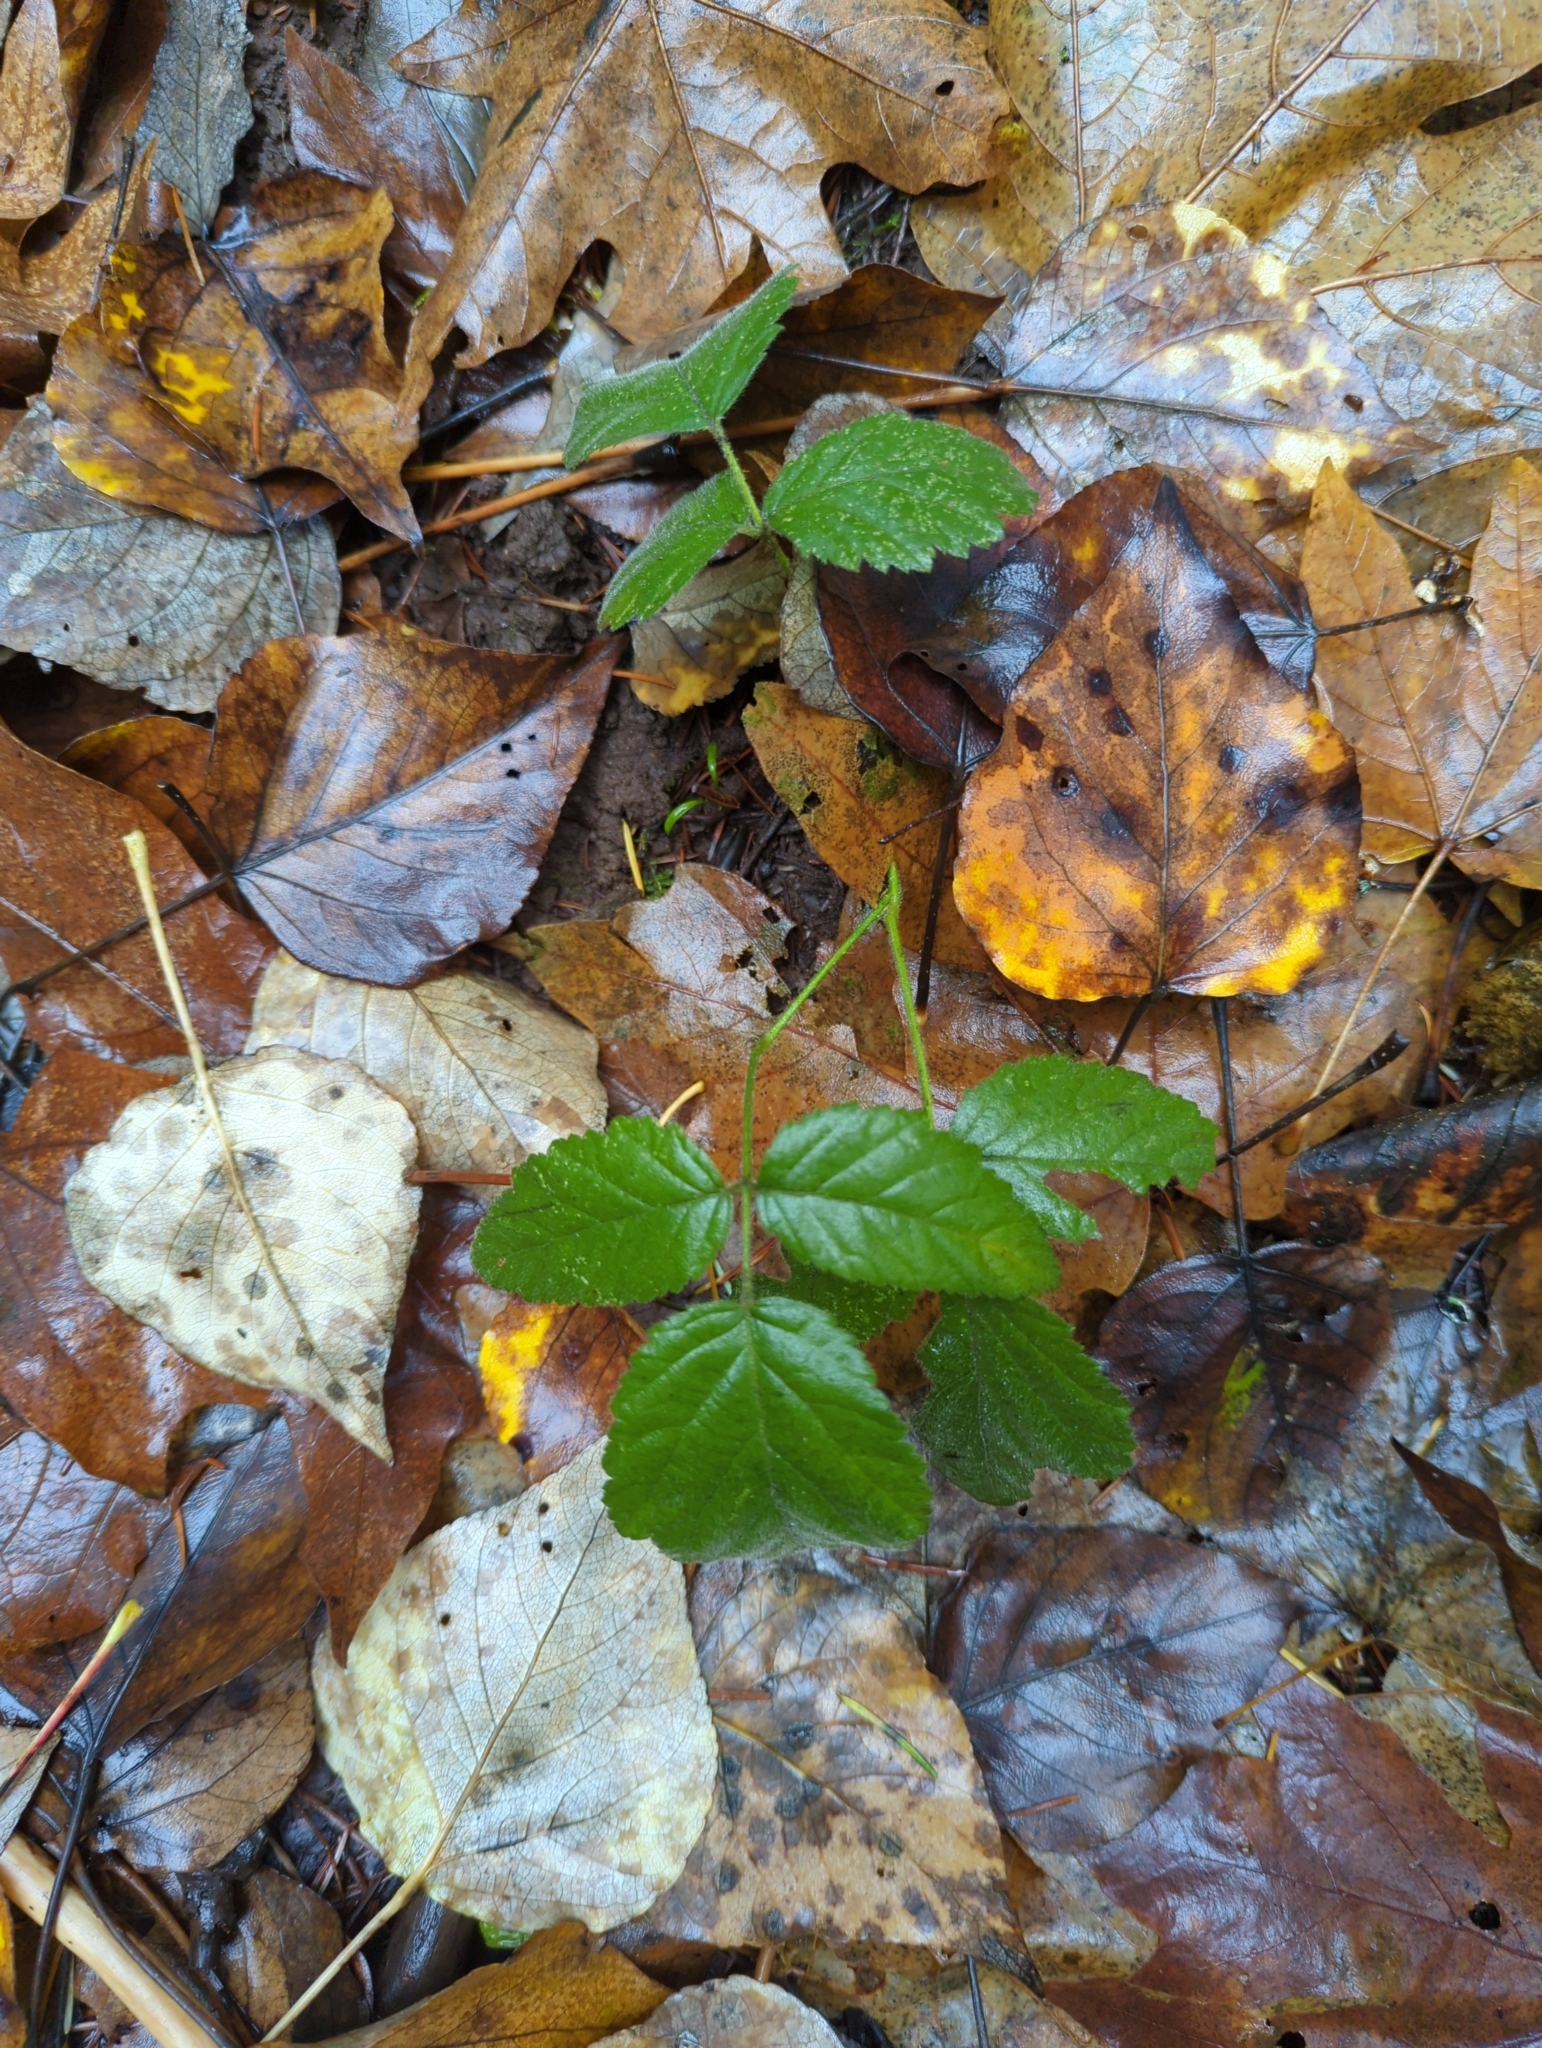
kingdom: Plantae
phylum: Tracheophyta
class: Magnoliopsida
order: Rosales
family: Rosaceae
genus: Rubus
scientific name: Rubus ursinus
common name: Pacific blackberry
